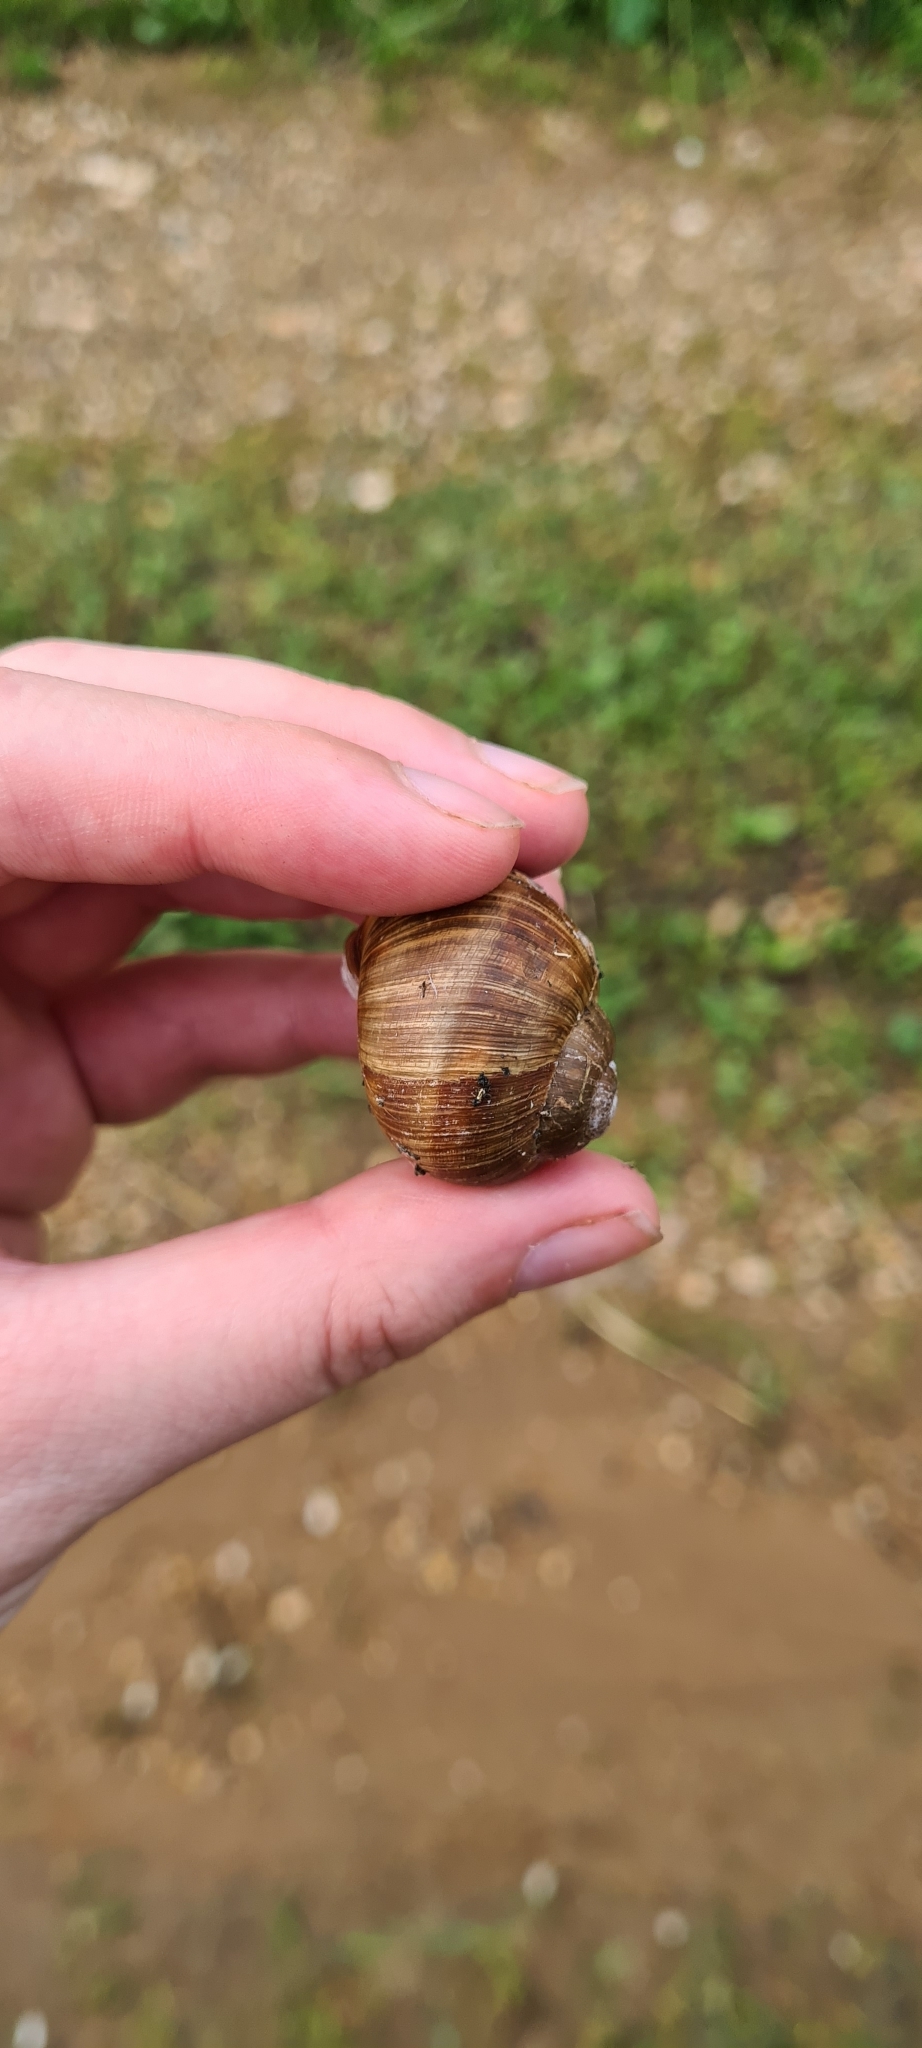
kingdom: Animalia
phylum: Mollusca
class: Gastropoda
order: Stylommatophora
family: Helicidae
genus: Helix
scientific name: Helix pomatia
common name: Roman snail
